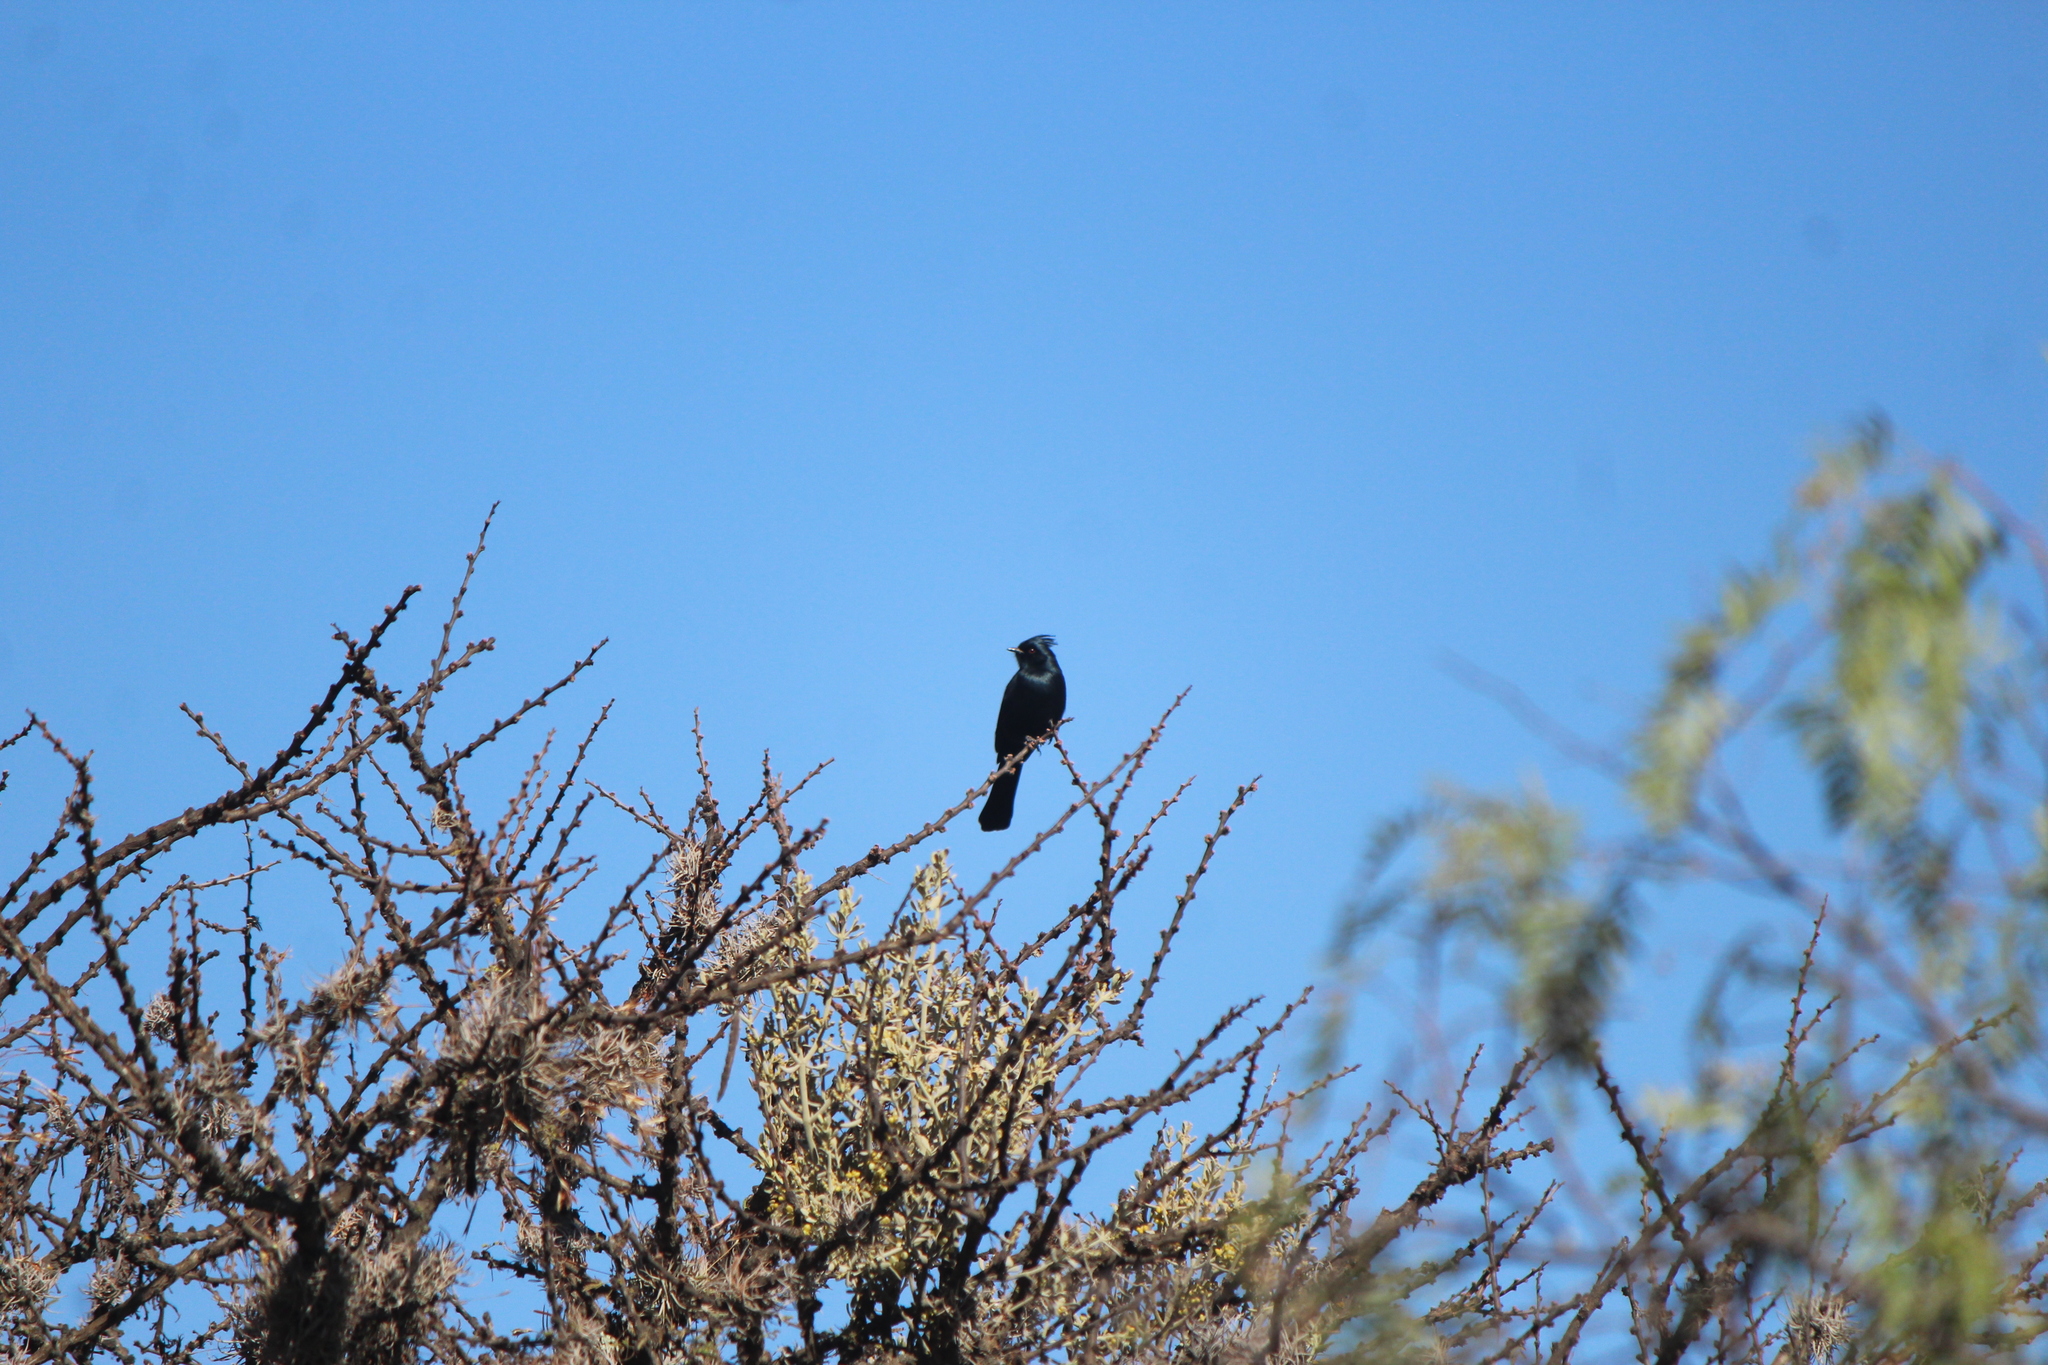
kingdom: Animalia
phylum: Chordata
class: Aves
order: Passeriformes
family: Ptilogonatidae
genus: Phainopepla
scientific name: Phainopepla nitens
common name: Phainopepla
